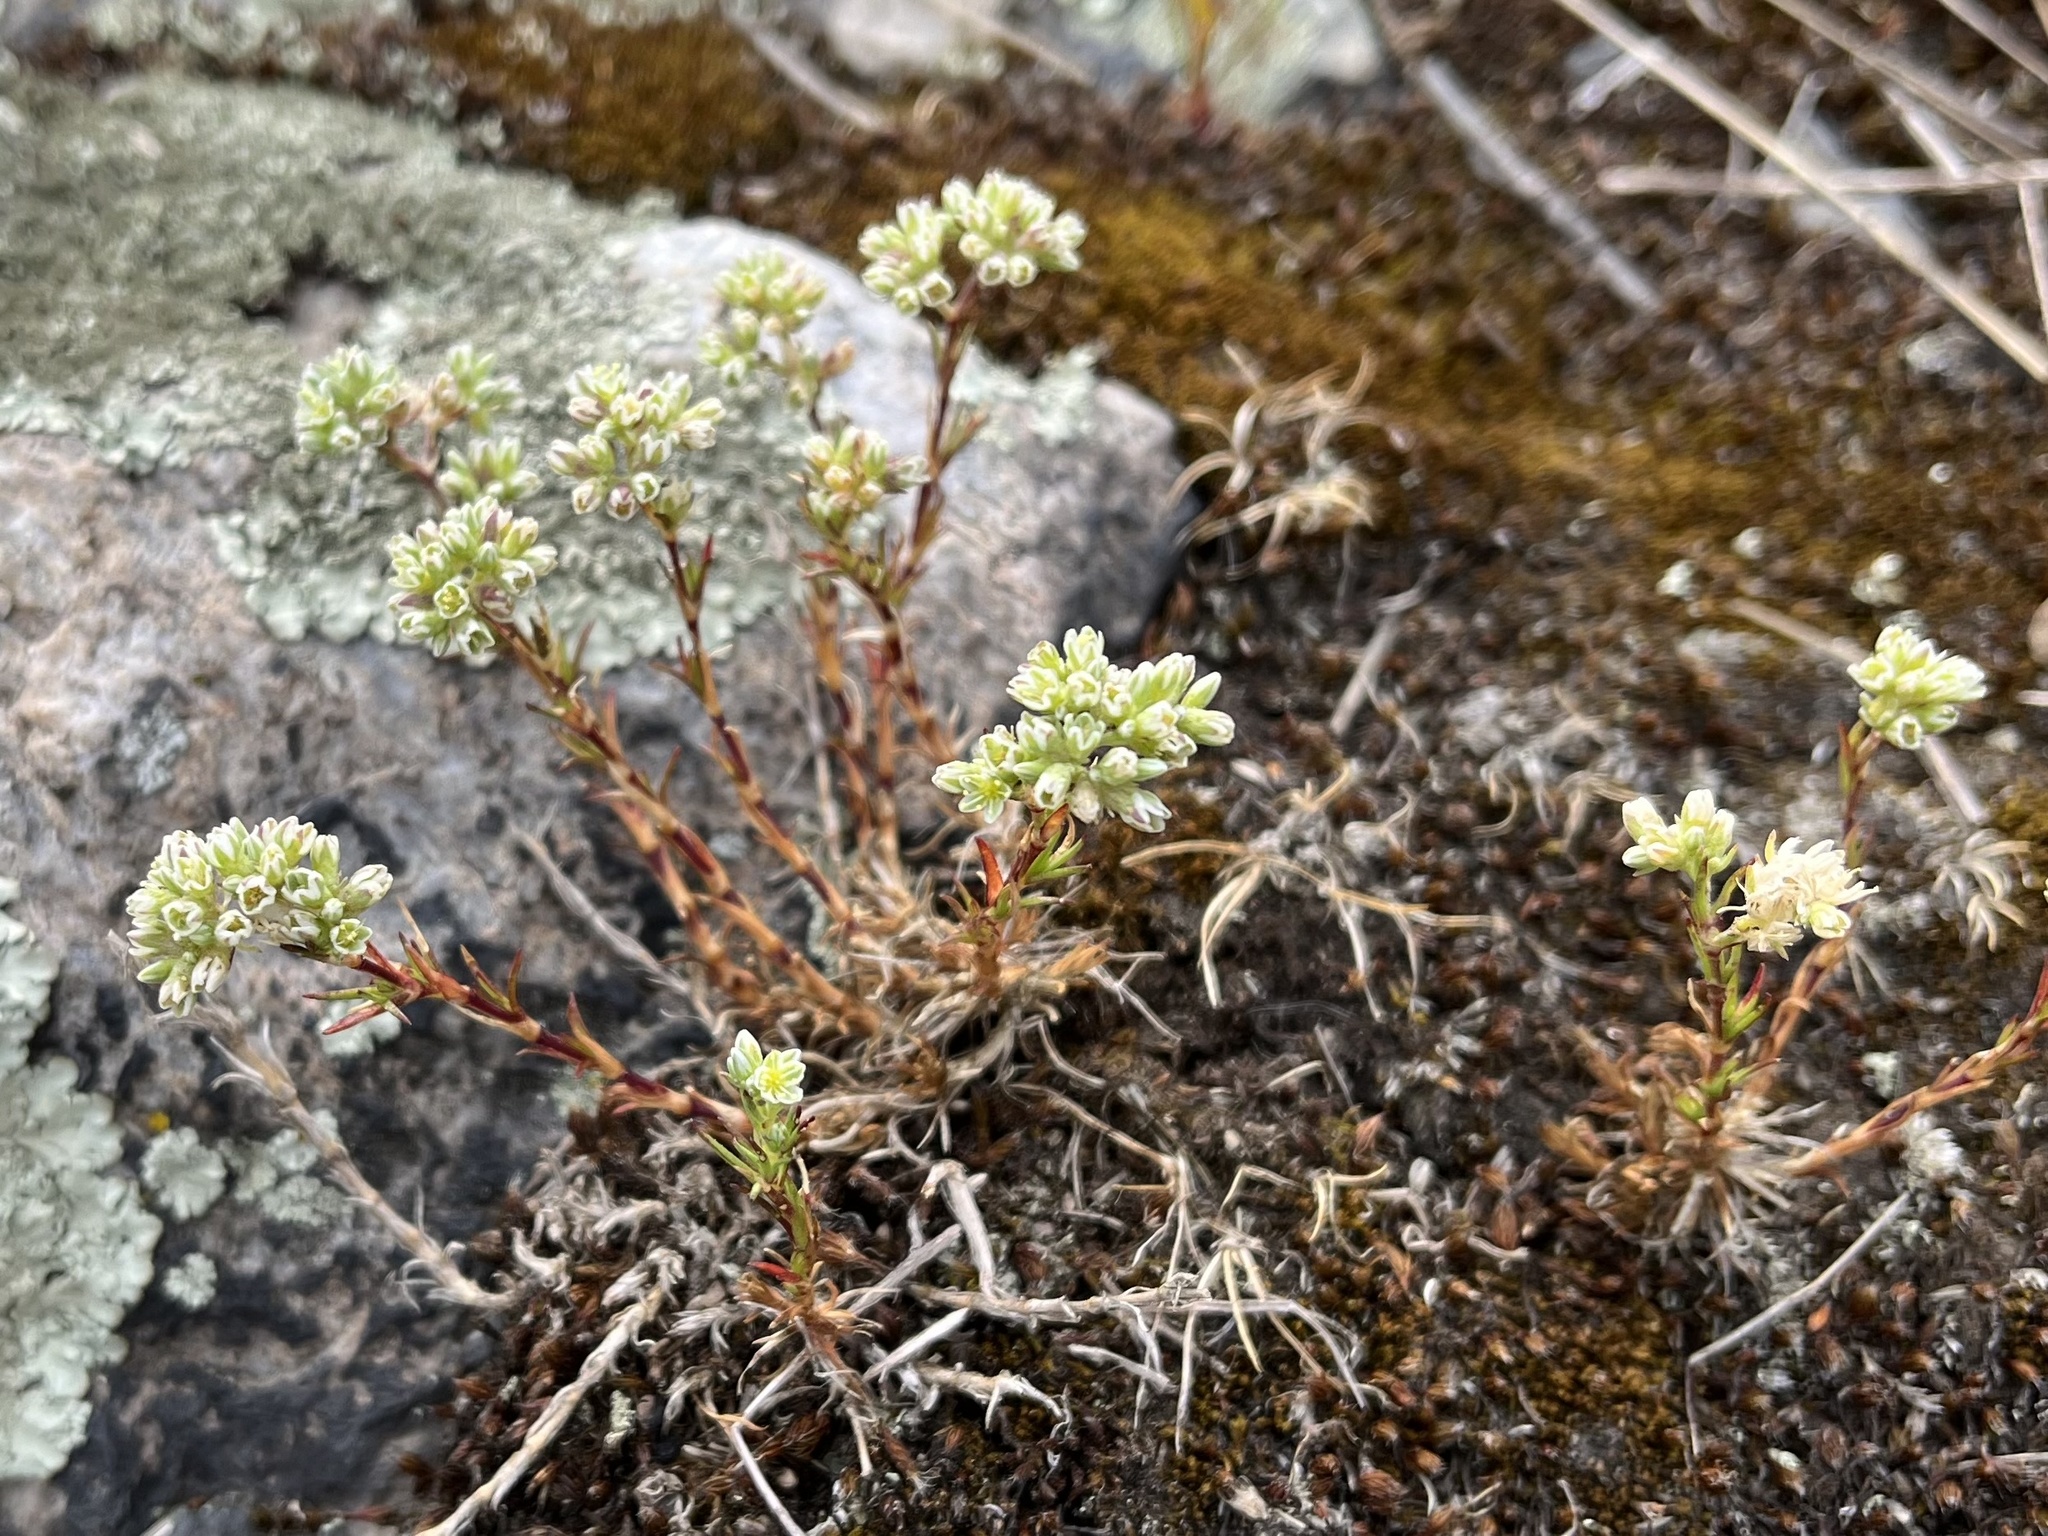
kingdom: Plantae
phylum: Tracheophyta
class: Magnoliopsida
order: Caryophyllales
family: Caryophyllaceae
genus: Scleranthus
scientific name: Scleranthus perennis
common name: Perennial knawel
